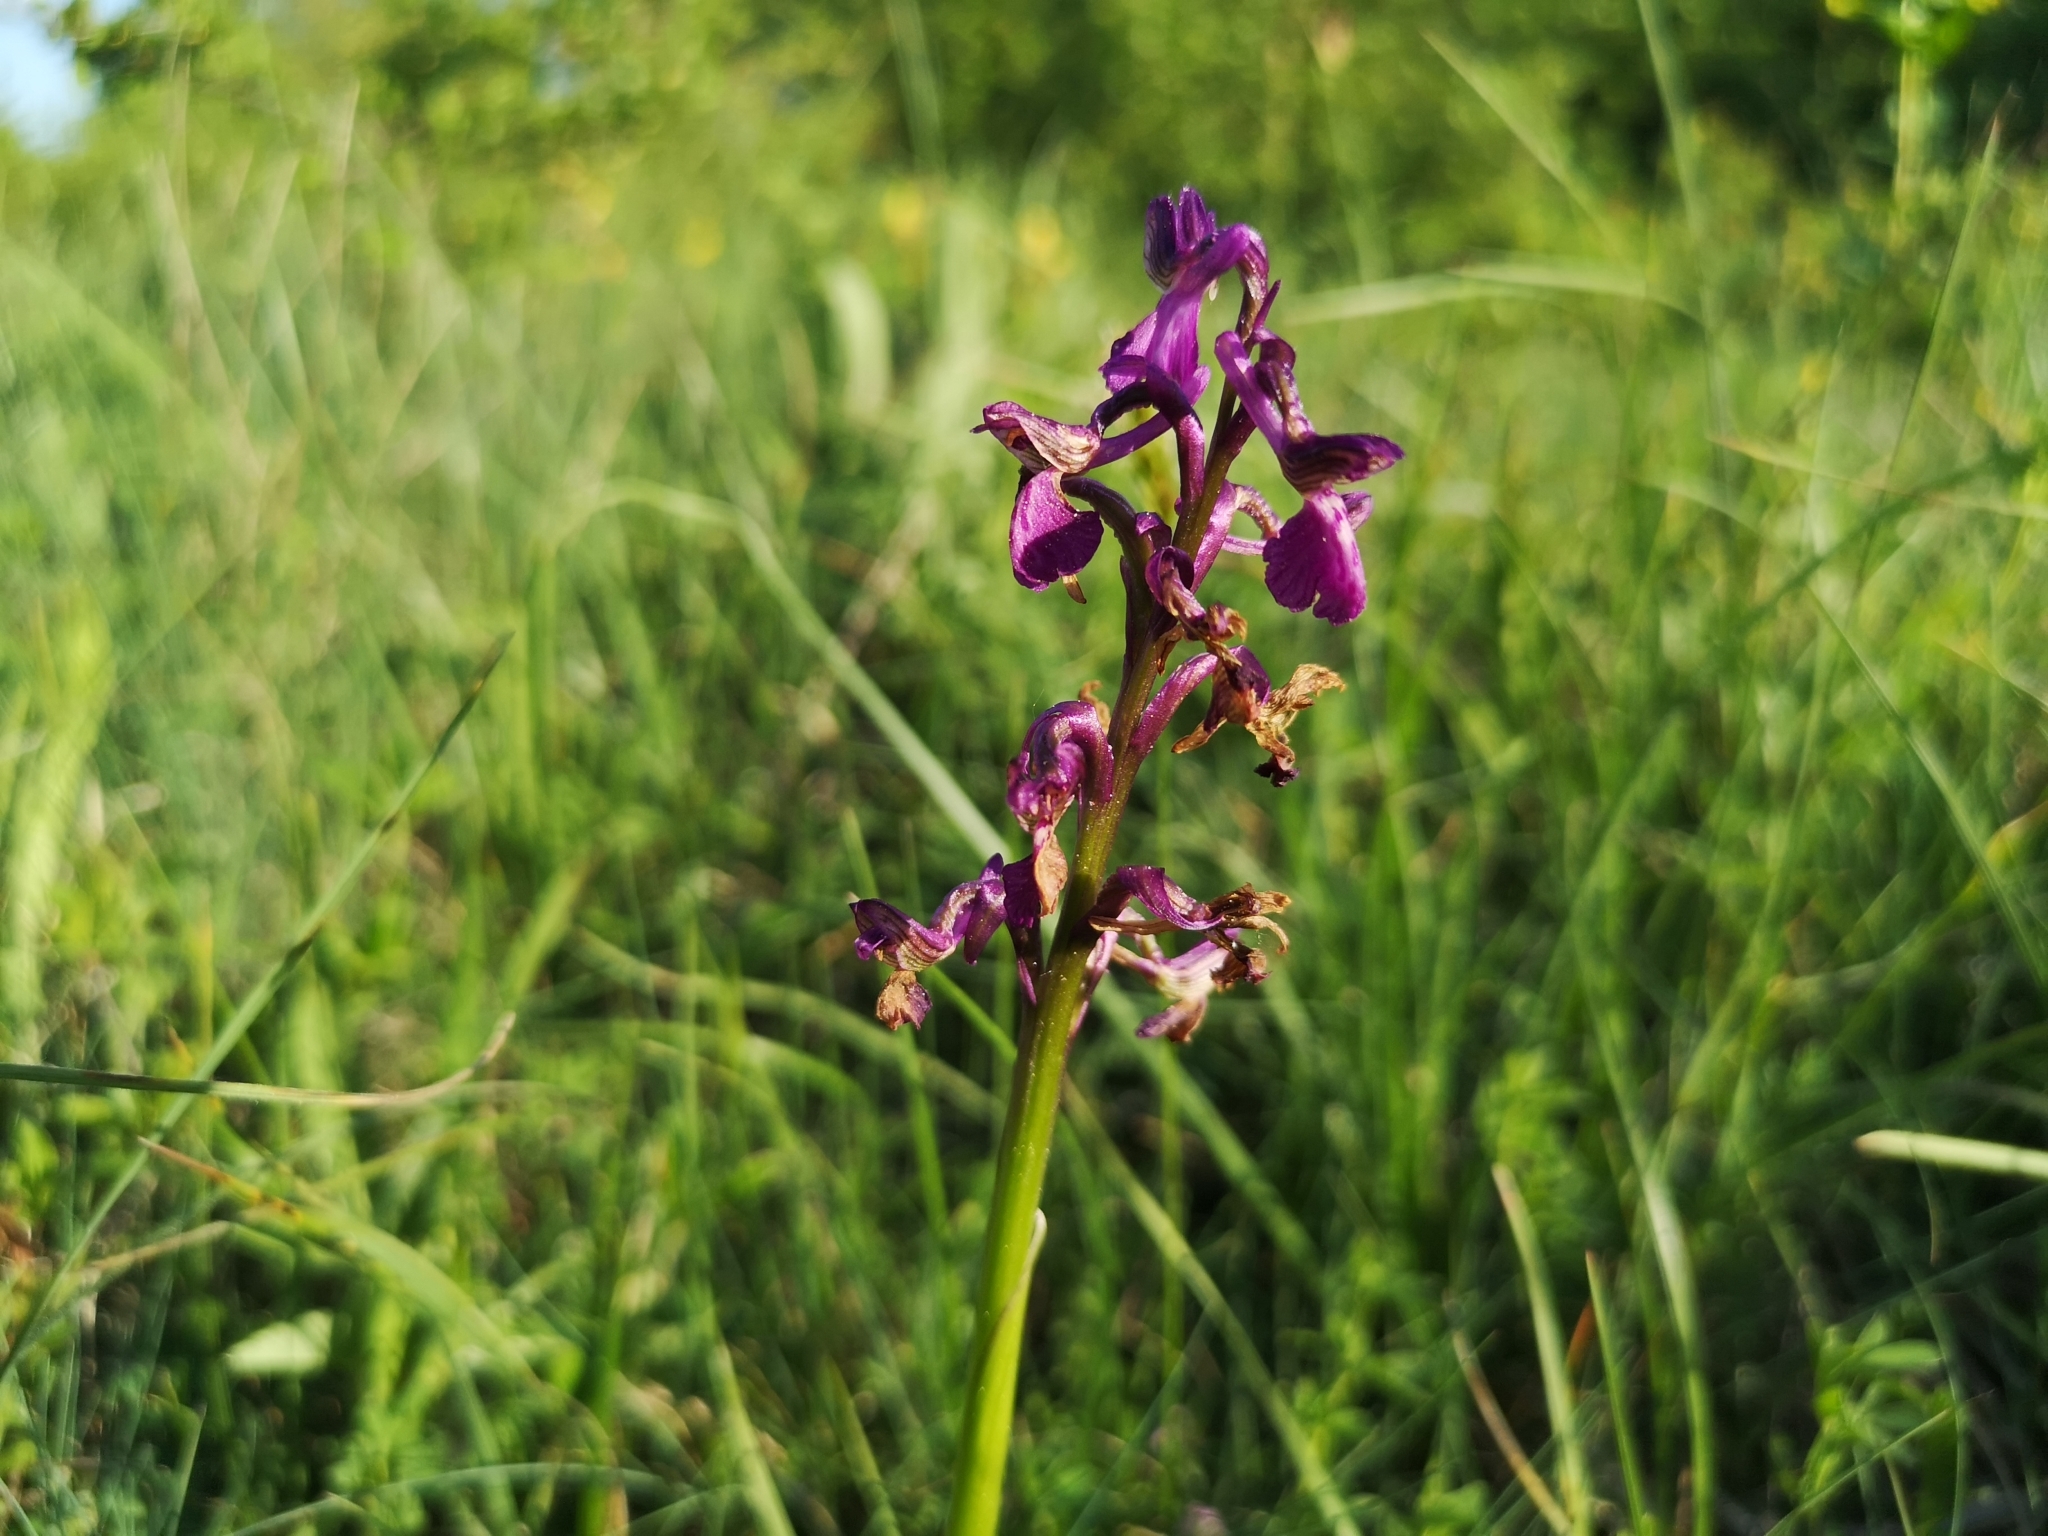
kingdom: Plantae
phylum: Tracheophyta
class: Liliopsida
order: Asparagales
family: Orchidaceae
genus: Anacamptis
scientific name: Anacamptis morio
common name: Green-winged orchid
